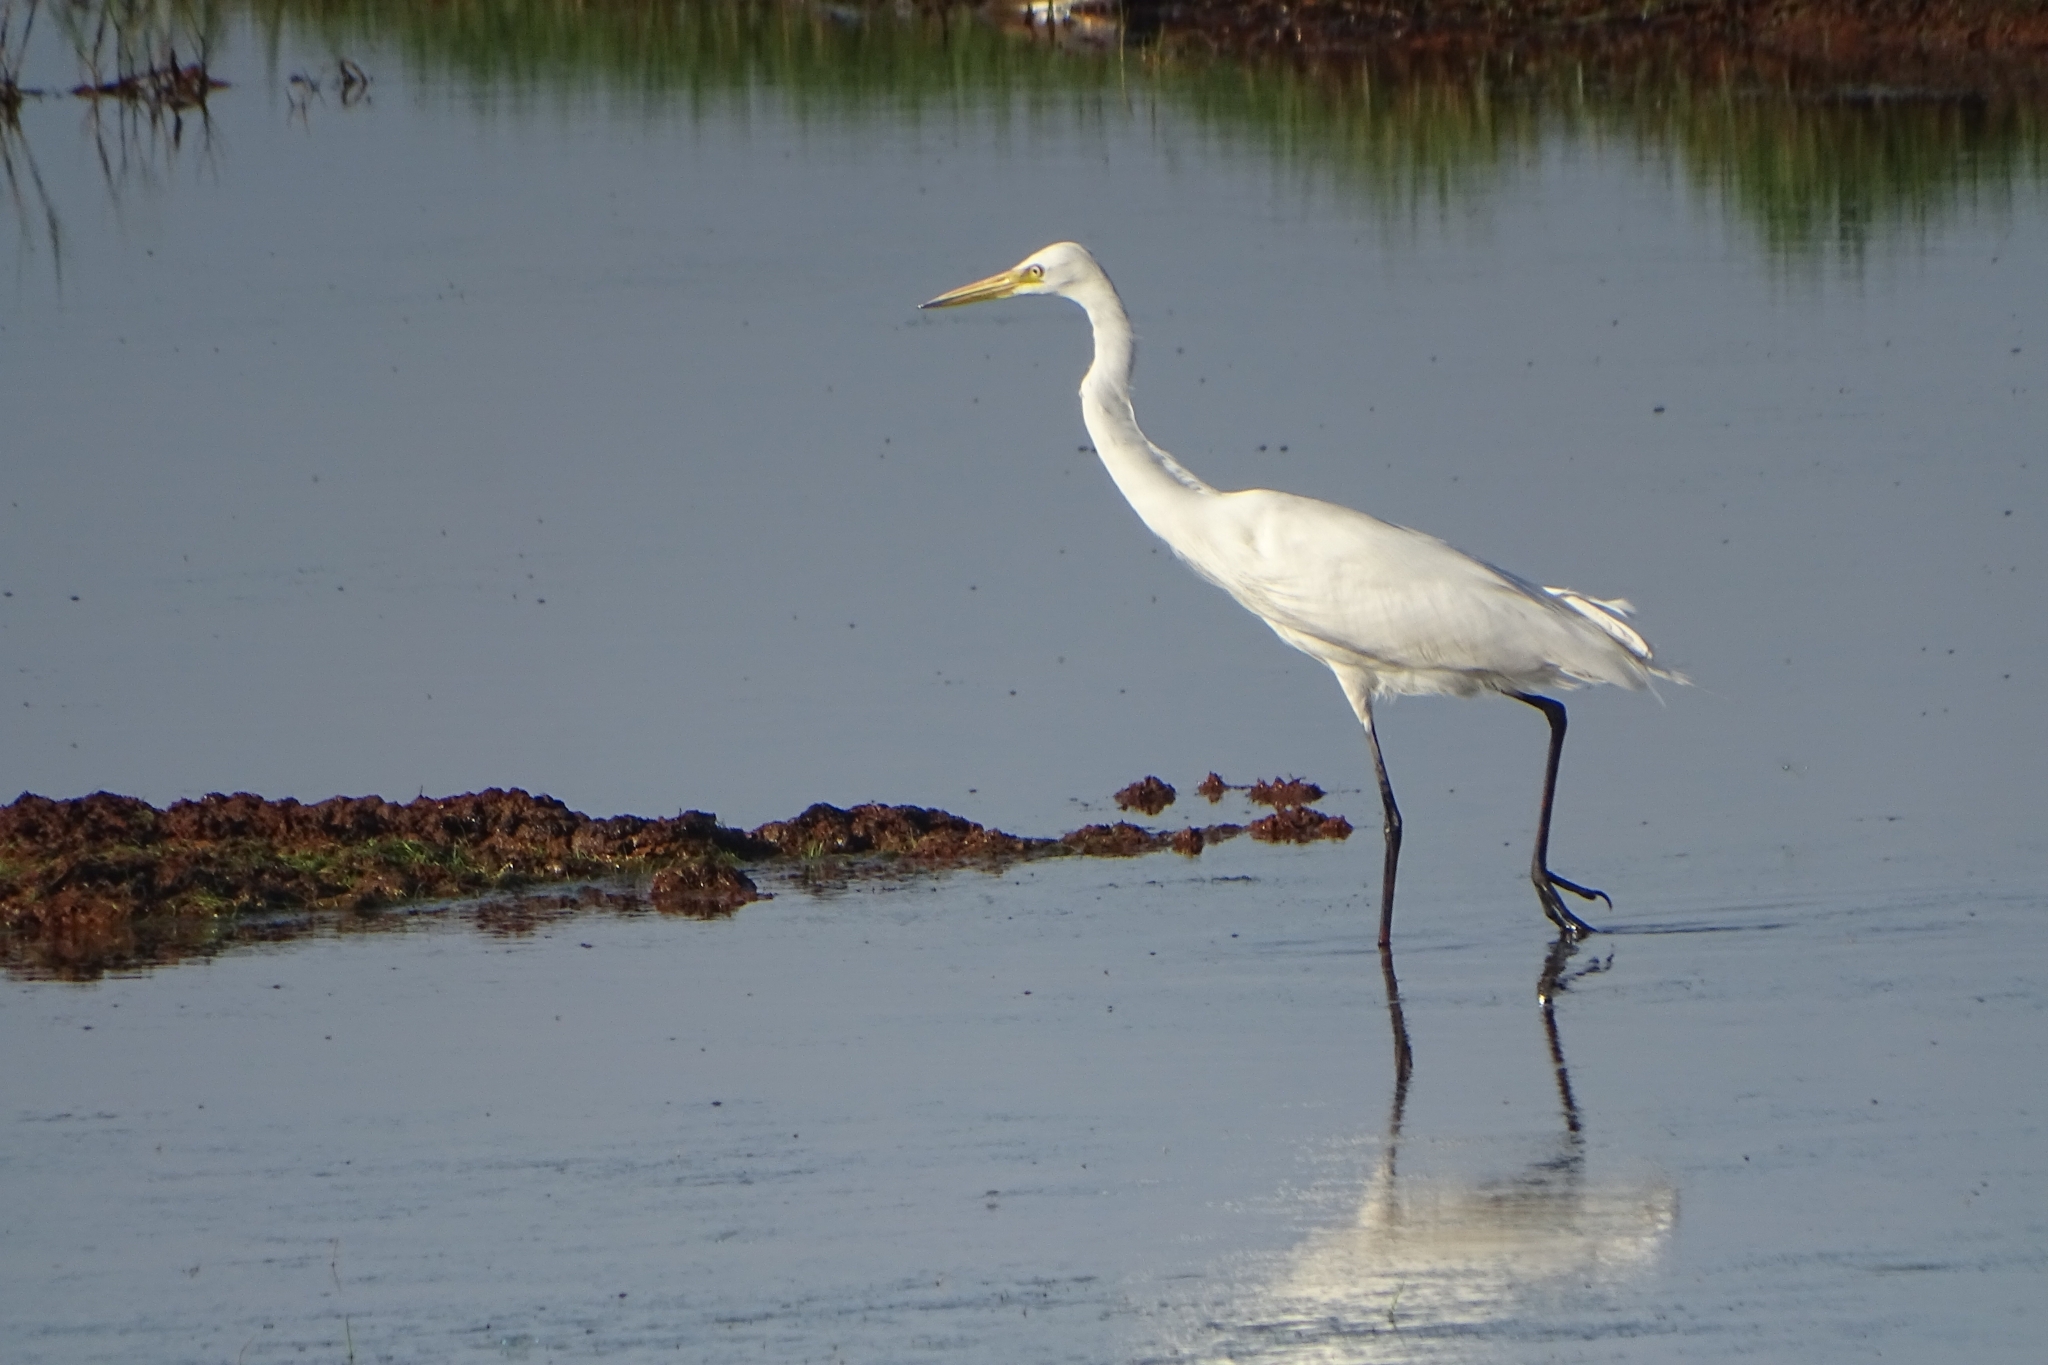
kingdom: Animalia
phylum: Chordata
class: Aves
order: Pelecaniformes
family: Ardeidae
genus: Egretta
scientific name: Egretta intermedia
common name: Intermediate egret
